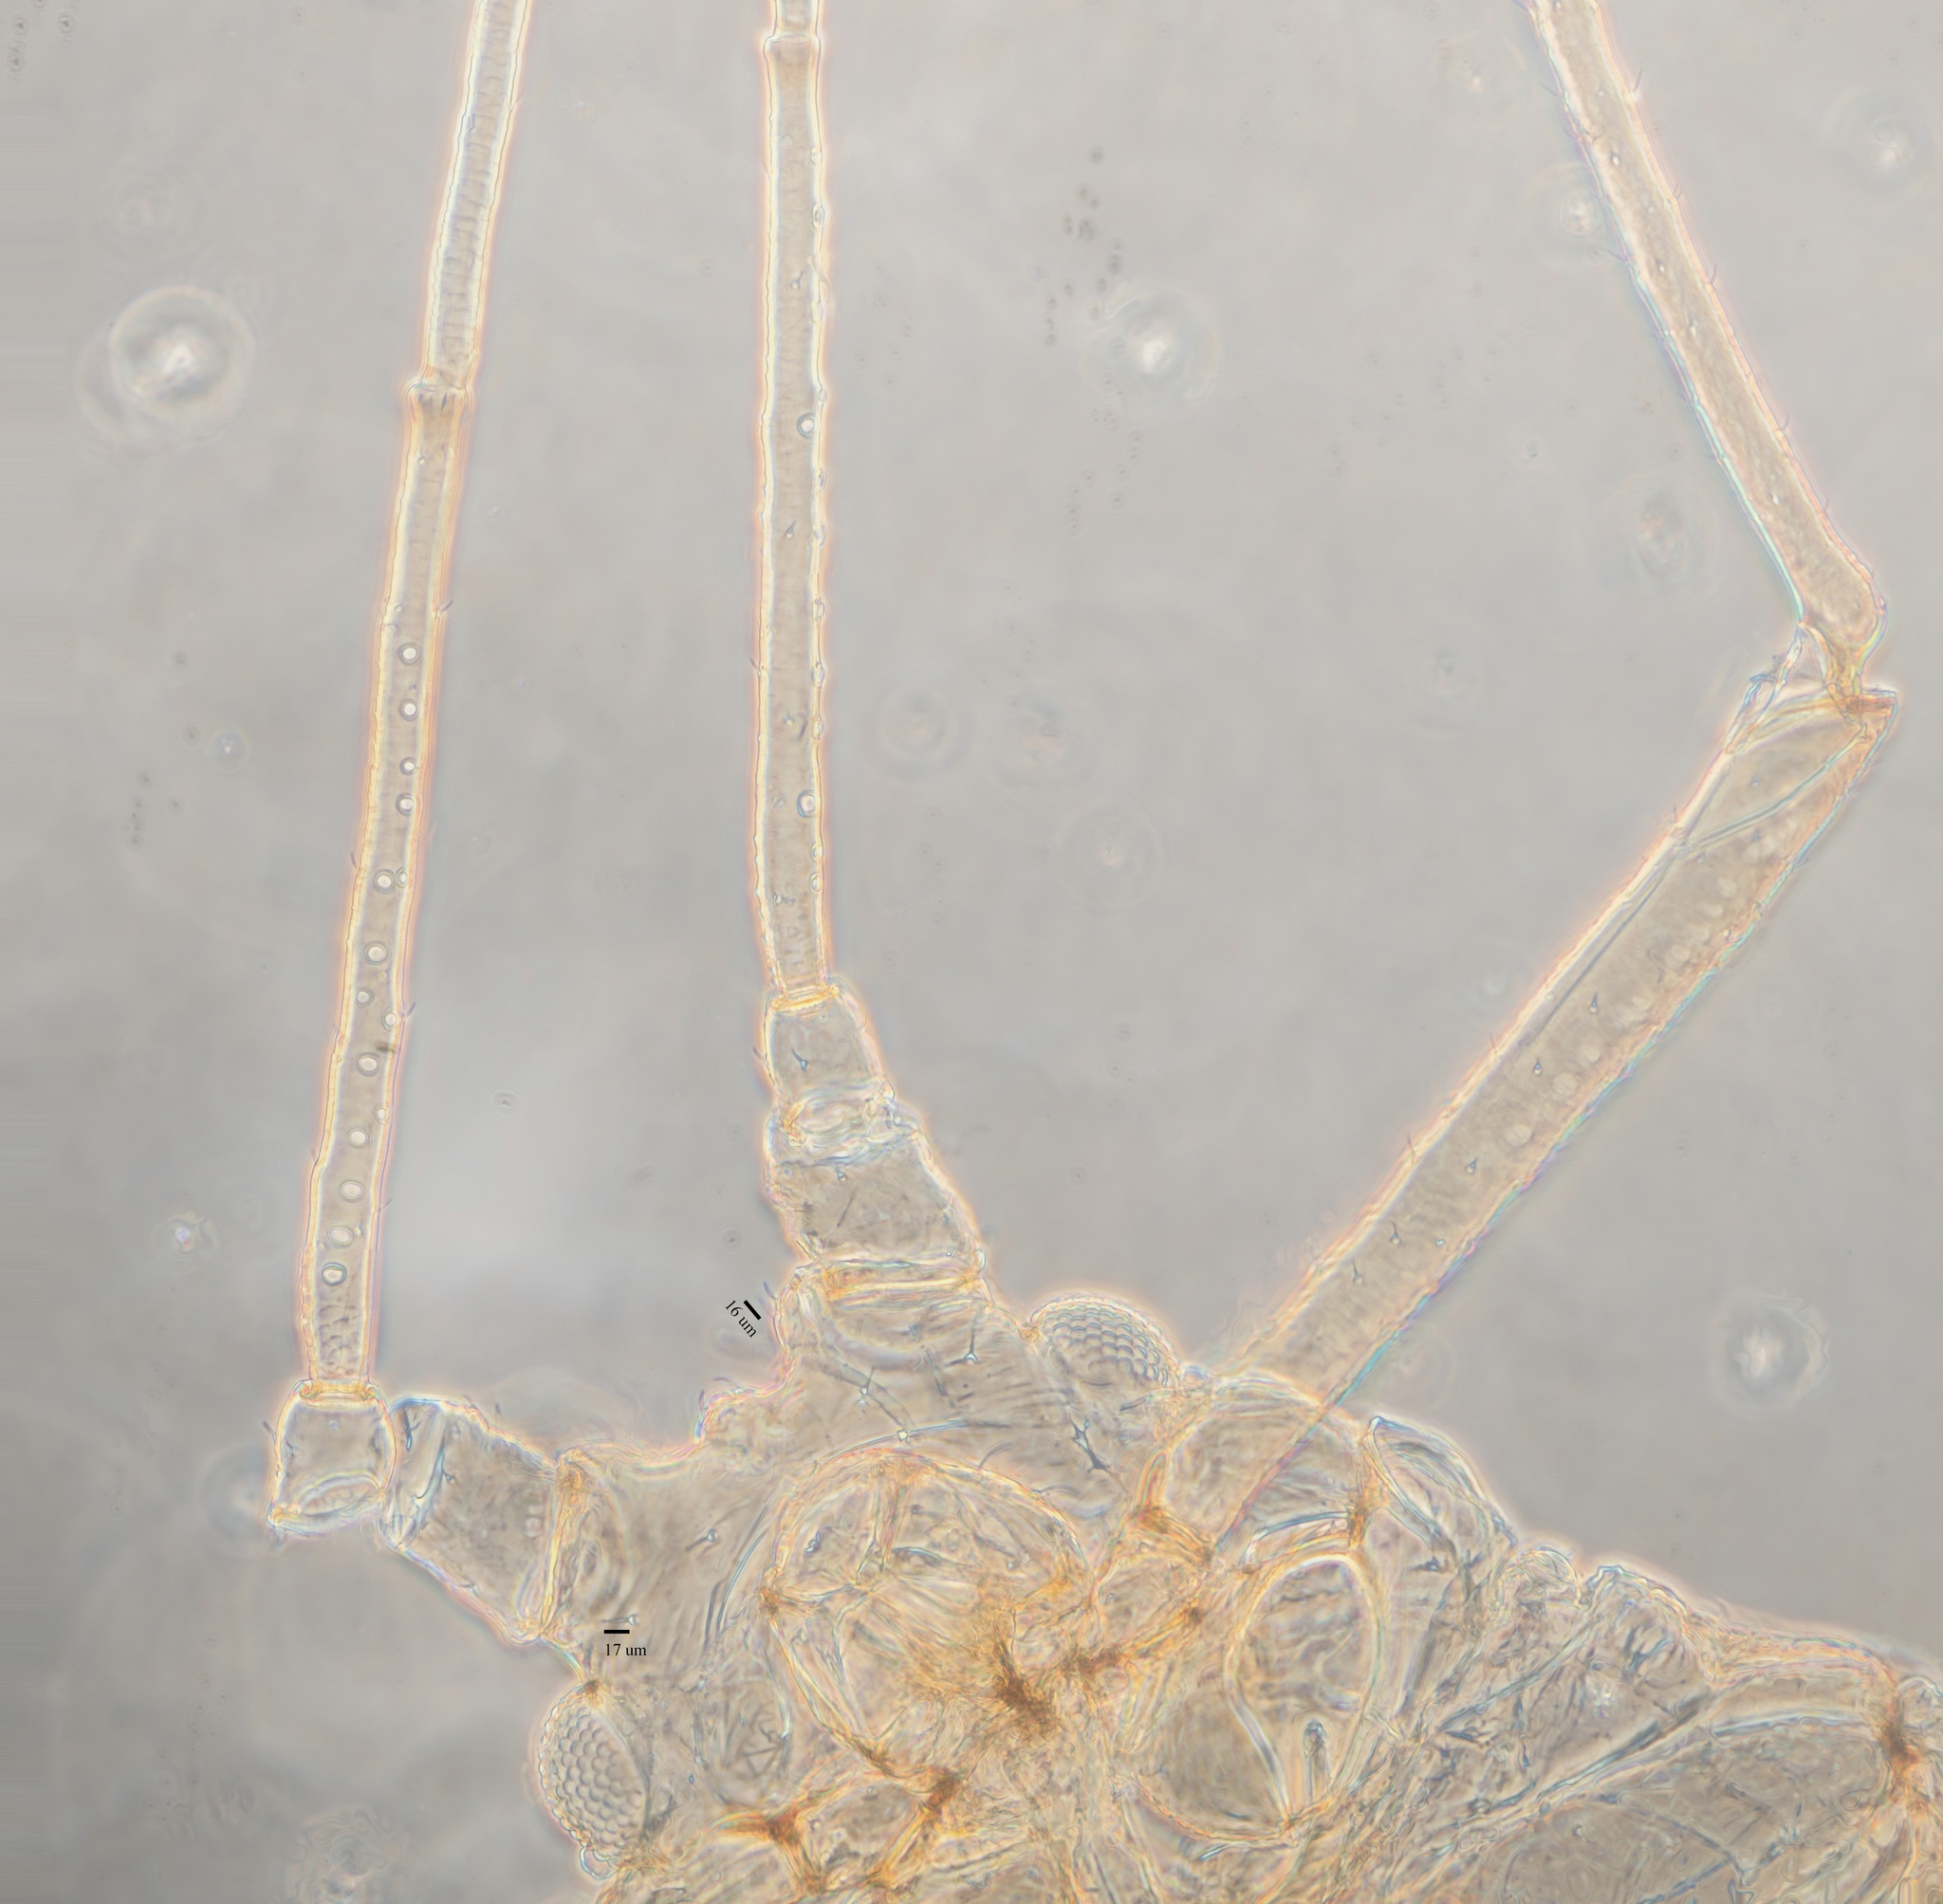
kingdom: Animalia
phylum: Arthropoda
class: Insecta
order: Hemiptera
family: Aphididae
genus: Hyperomyzus
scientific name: Hyperomyzus lactucae
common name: Sow thistle aphid
